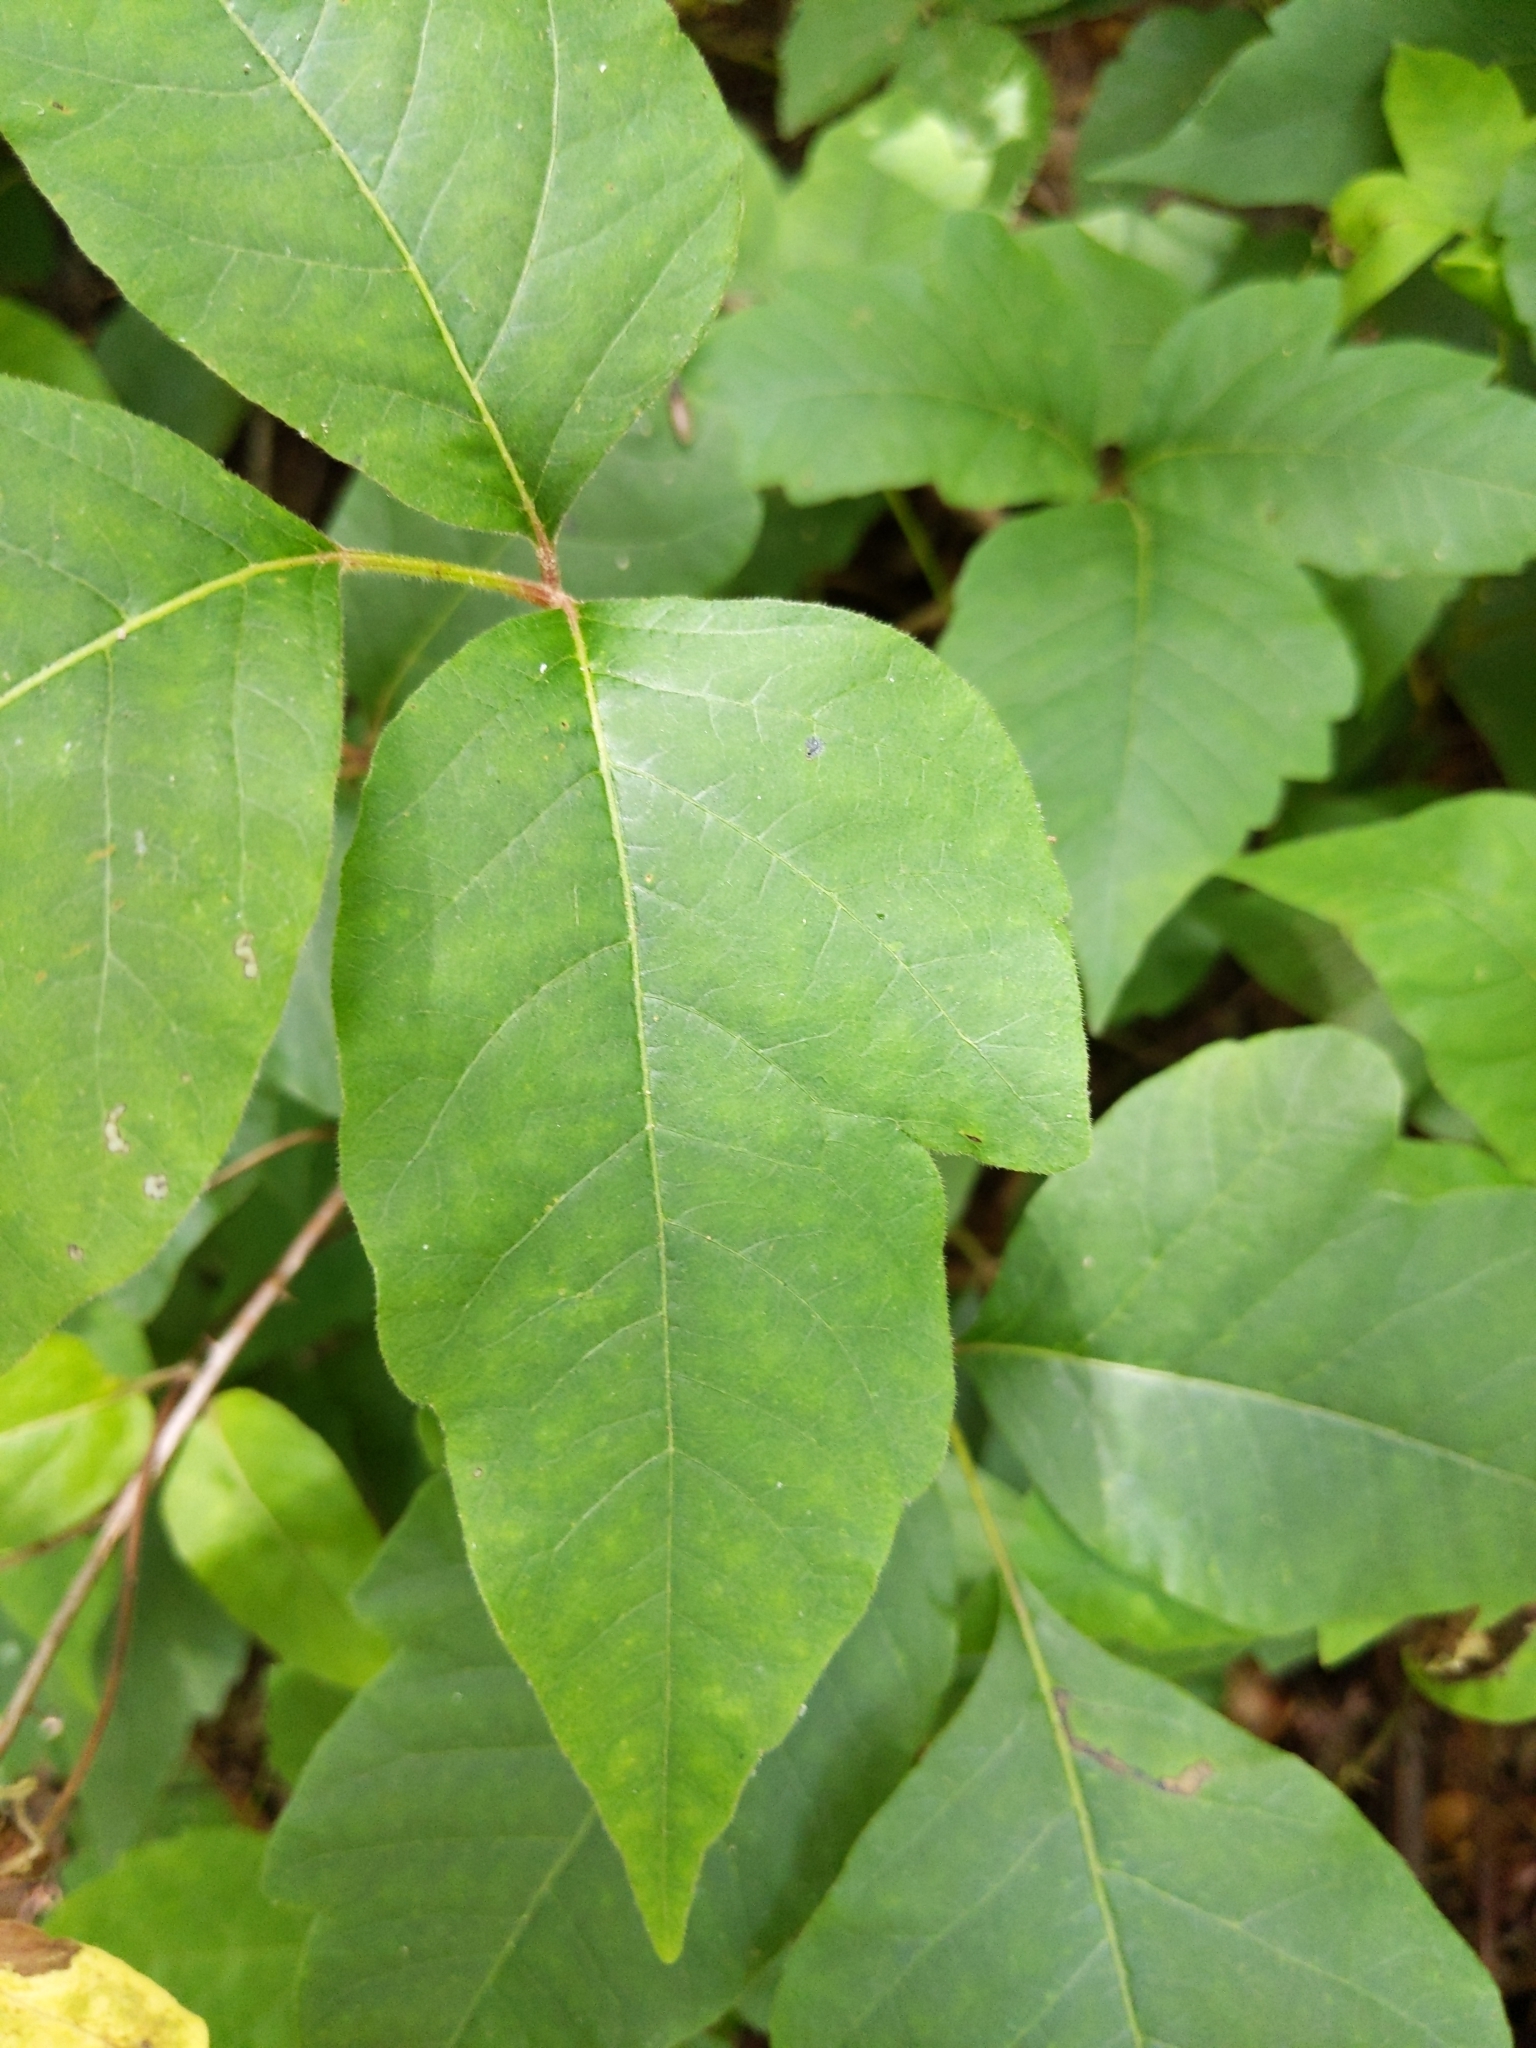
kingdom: Plantae
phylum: Tracheophyta
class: Magnoliopsida
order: Sapindales
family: Anacardiaceae
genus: Toxicodendron
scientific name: Toxicodendron radicans
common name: Poison ivy
